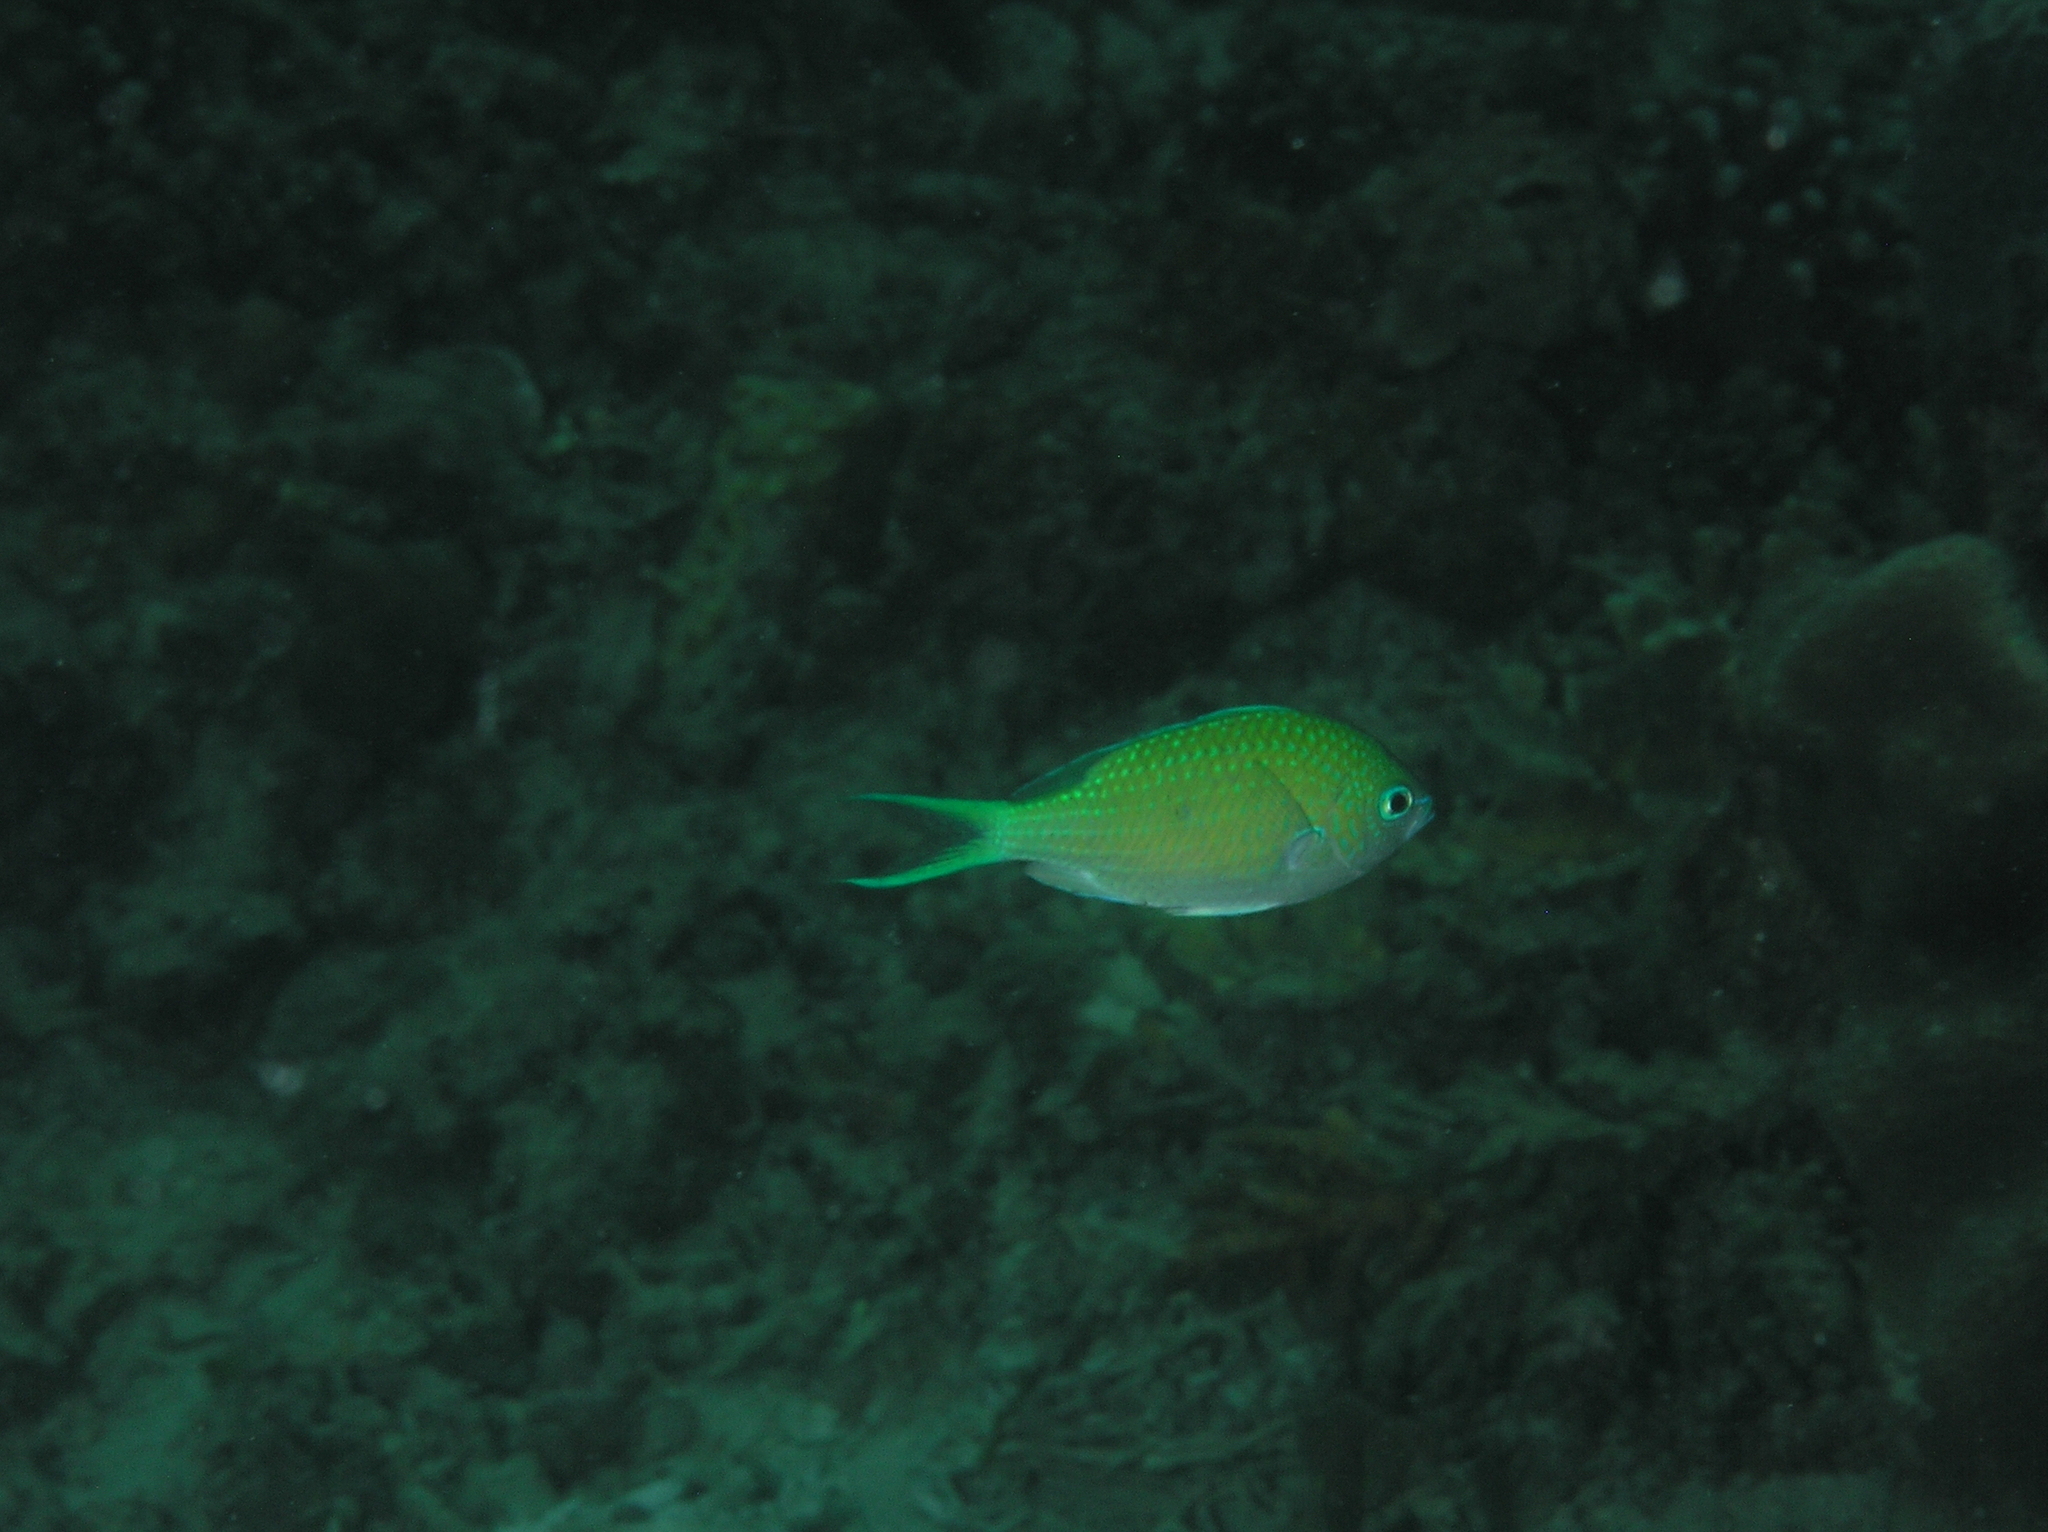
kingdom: Animalia
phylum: Chordata
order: Perciformes
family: Pomacentridae
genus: Chromis
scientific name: Chromis atripectoralis
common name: Black-axil chromis
